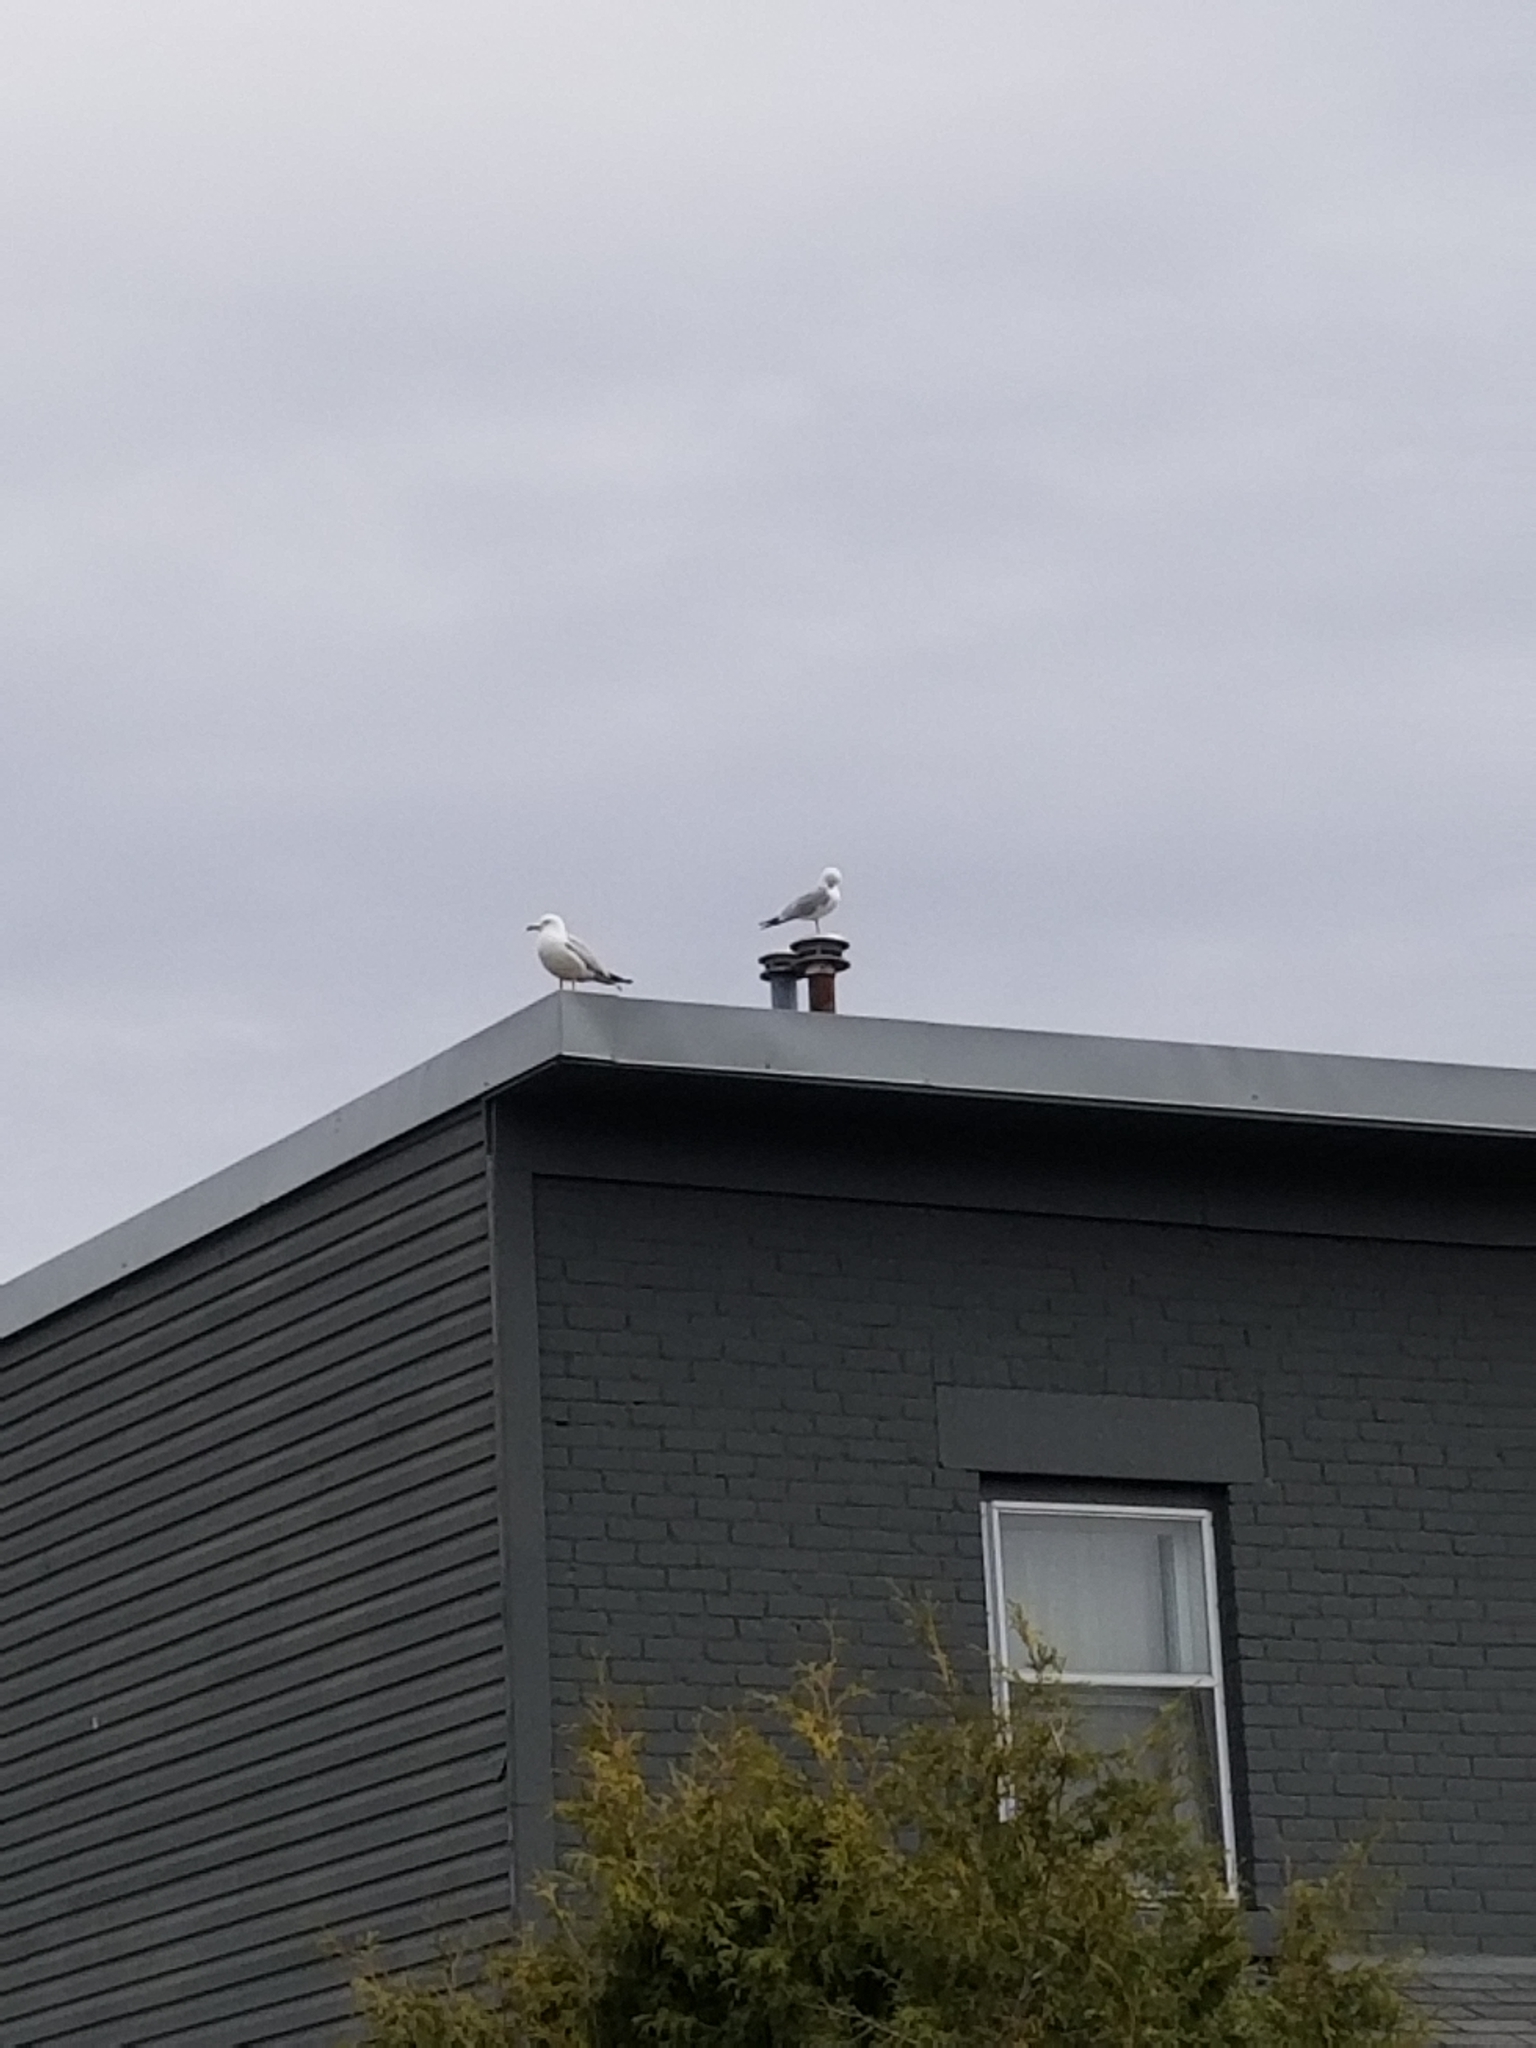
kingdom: Animalia
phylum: Chordata
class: Aves
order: Charadriiformes
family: Laridae
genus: Larus
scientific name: Larus delawarensis
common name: Ring-billed gull
